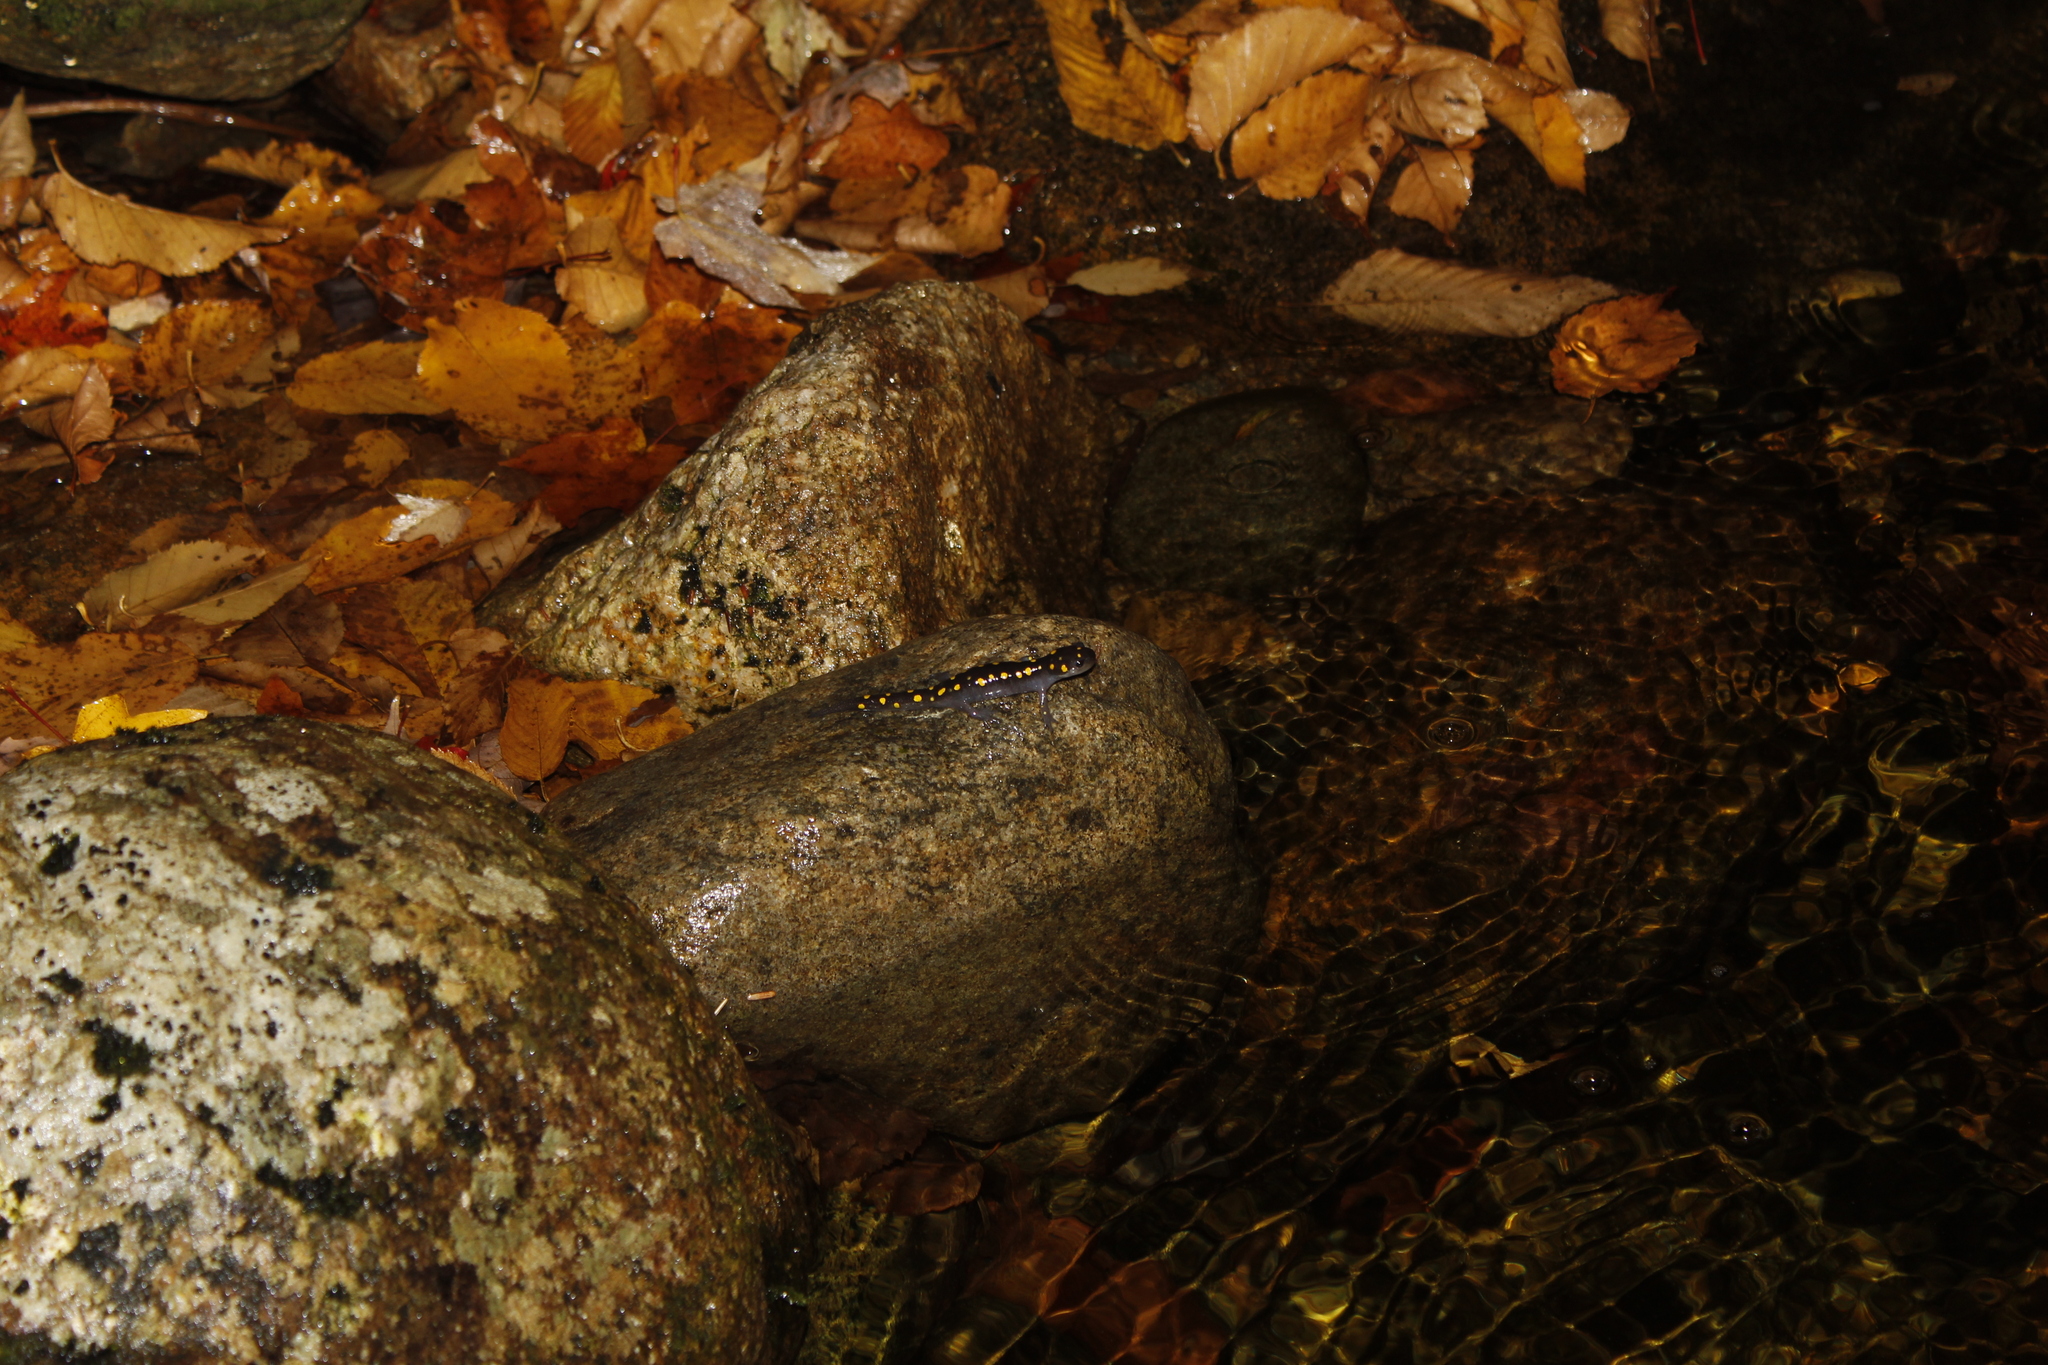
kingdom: Animalia
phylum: Chordata
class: Amphibia
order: Caudata
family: Ambystomatidae
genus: Ambystoma
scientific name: Ambystoma maculatum
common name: Spotted salamander
